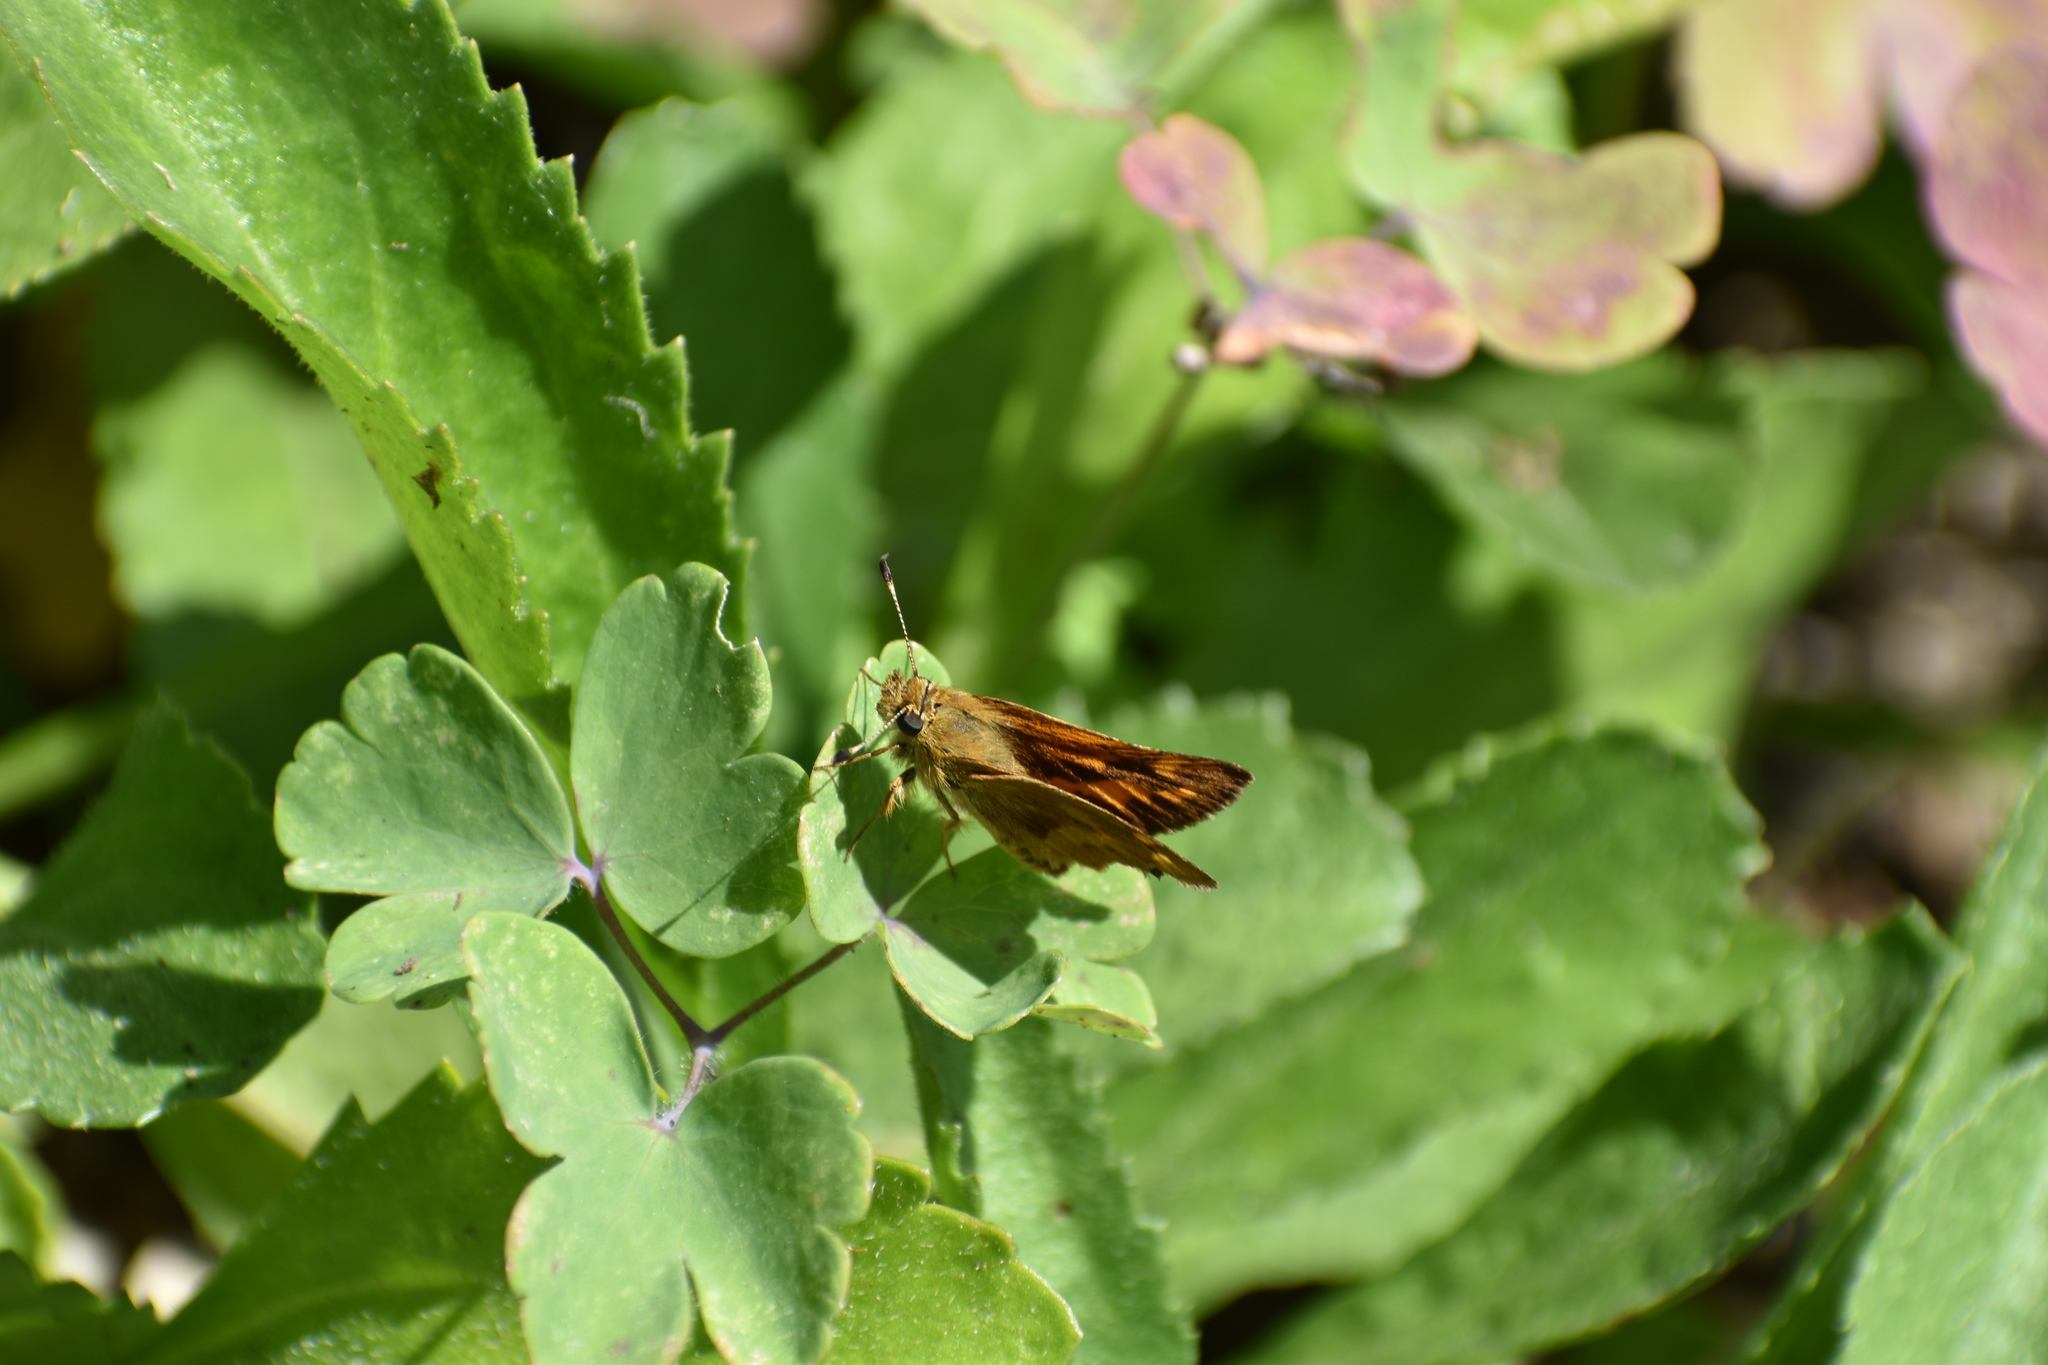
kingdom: Animalia
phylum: Arthropoda
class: Insecta
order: Lepidoptera
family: Hesperiidae
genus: Ochlodes
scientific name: Ochlodes sylvanoides
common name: Woodland skipper
